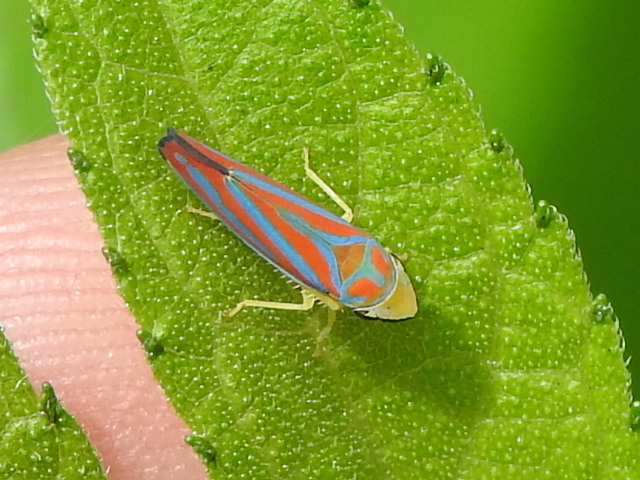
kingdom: Animalia
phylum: Arthropoda
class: Insecta
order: Hemiptera
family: Cicadellidae
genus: Graphocephala
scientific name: Graphocephala coccinea
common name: Candy-striped leafhopper
